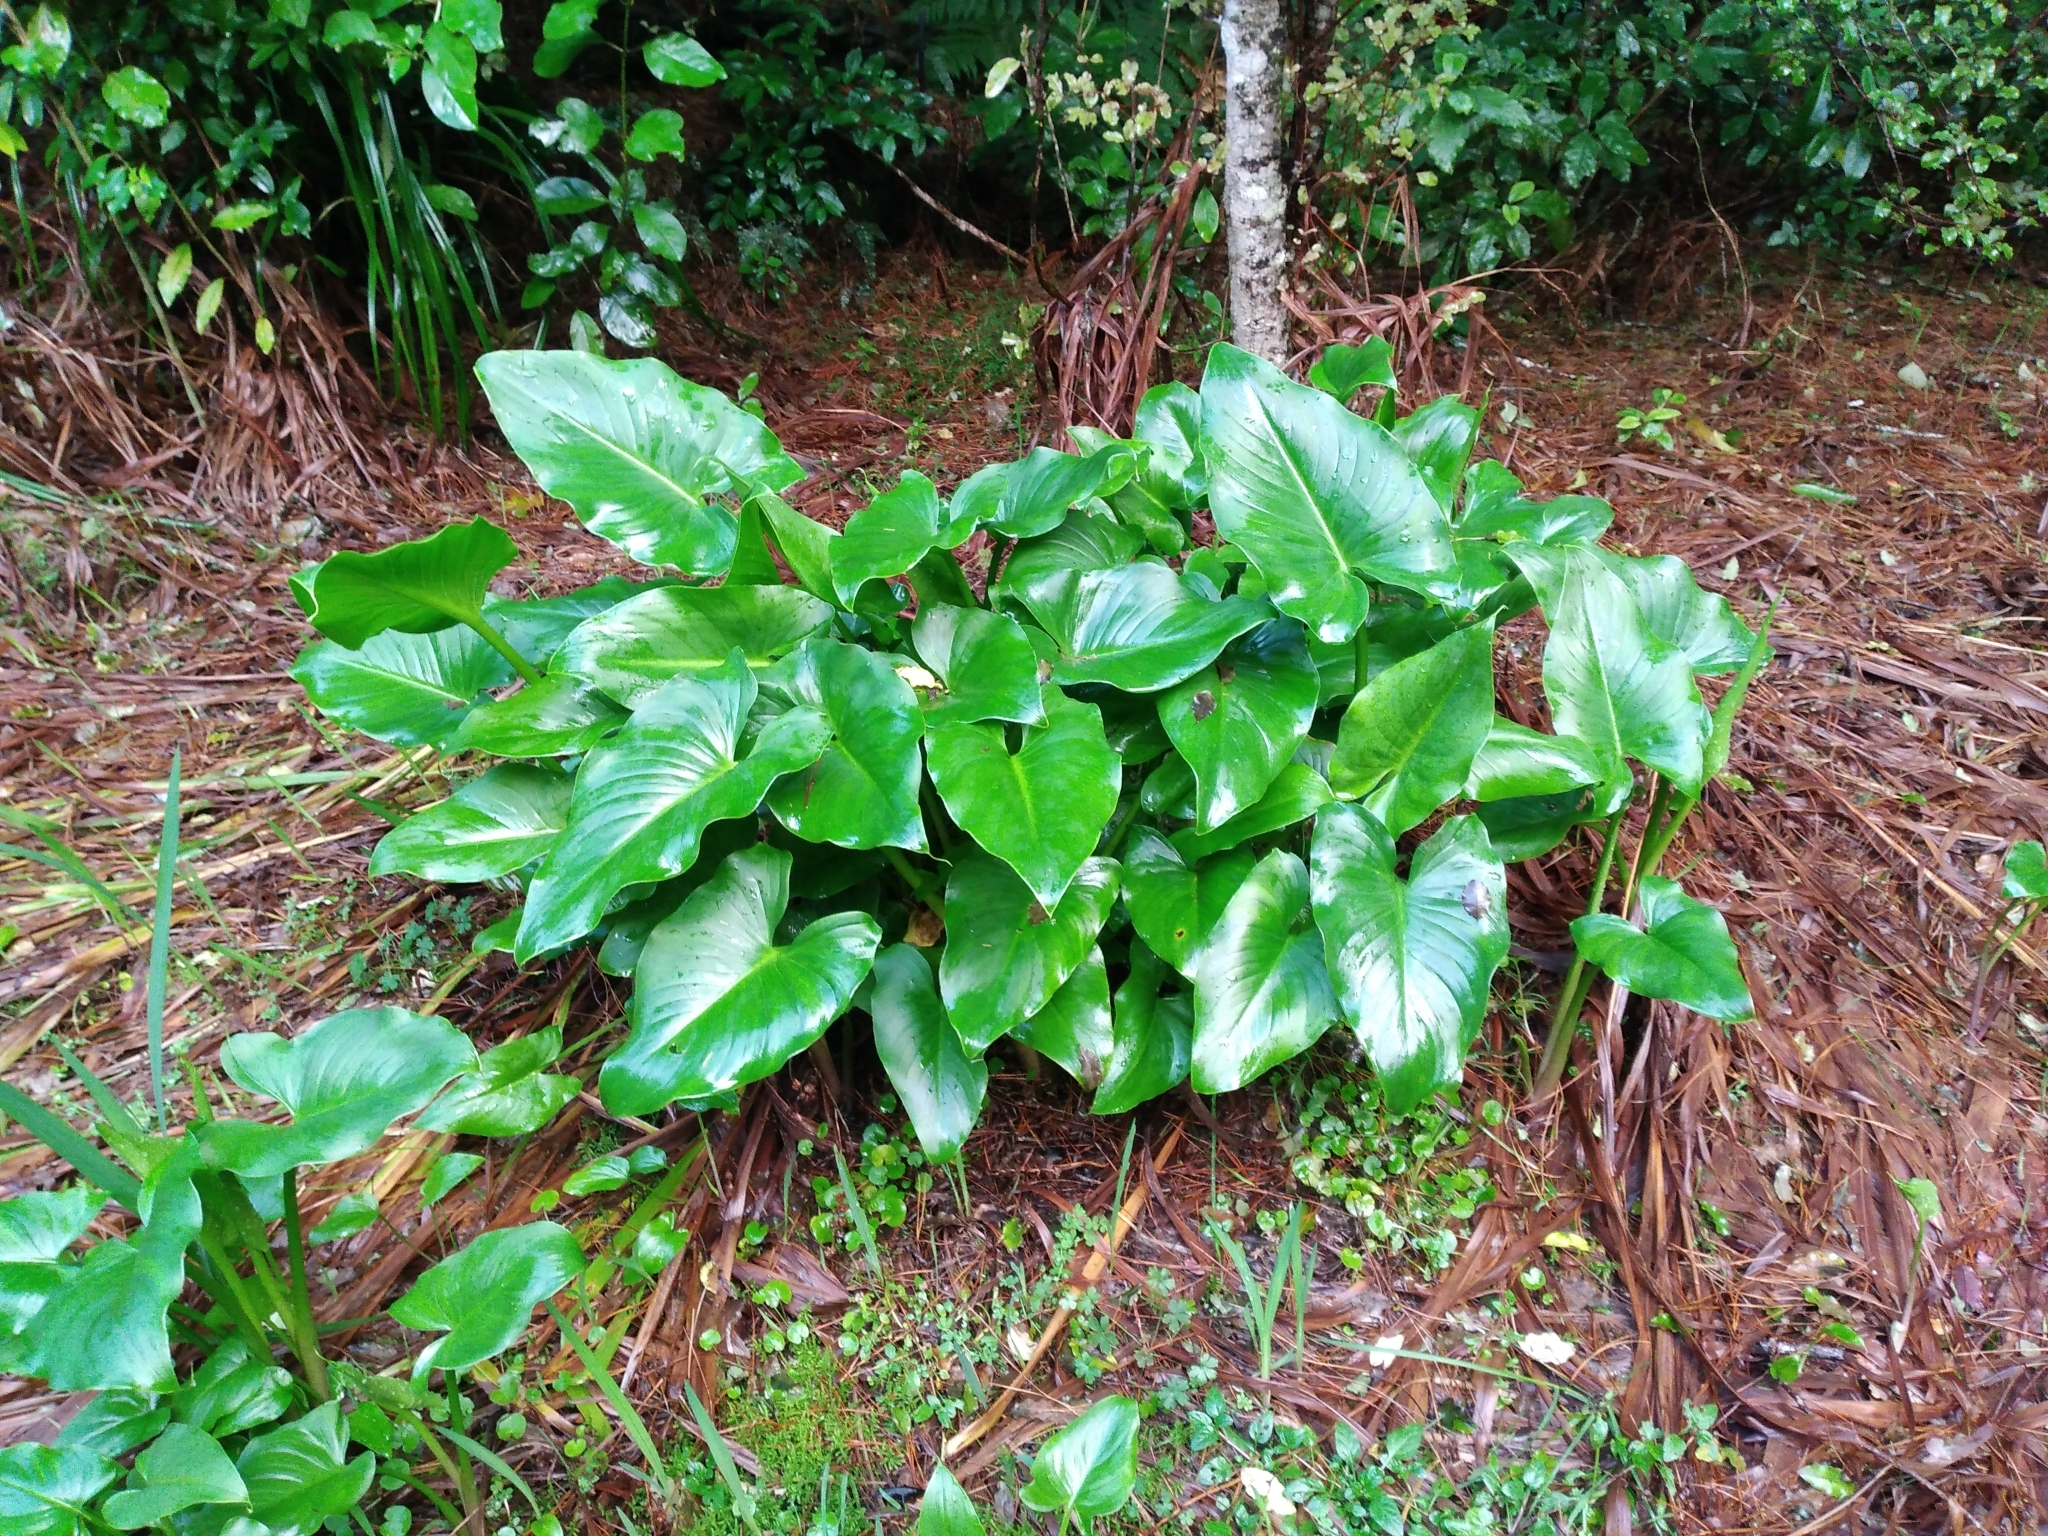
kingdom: Plantae
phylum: Tracheophyta
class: Liliopsida
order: Alismatales
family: Araceae
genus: Zantedeschia
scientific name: Zantedeschia aethiopica
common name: Altar-lily
